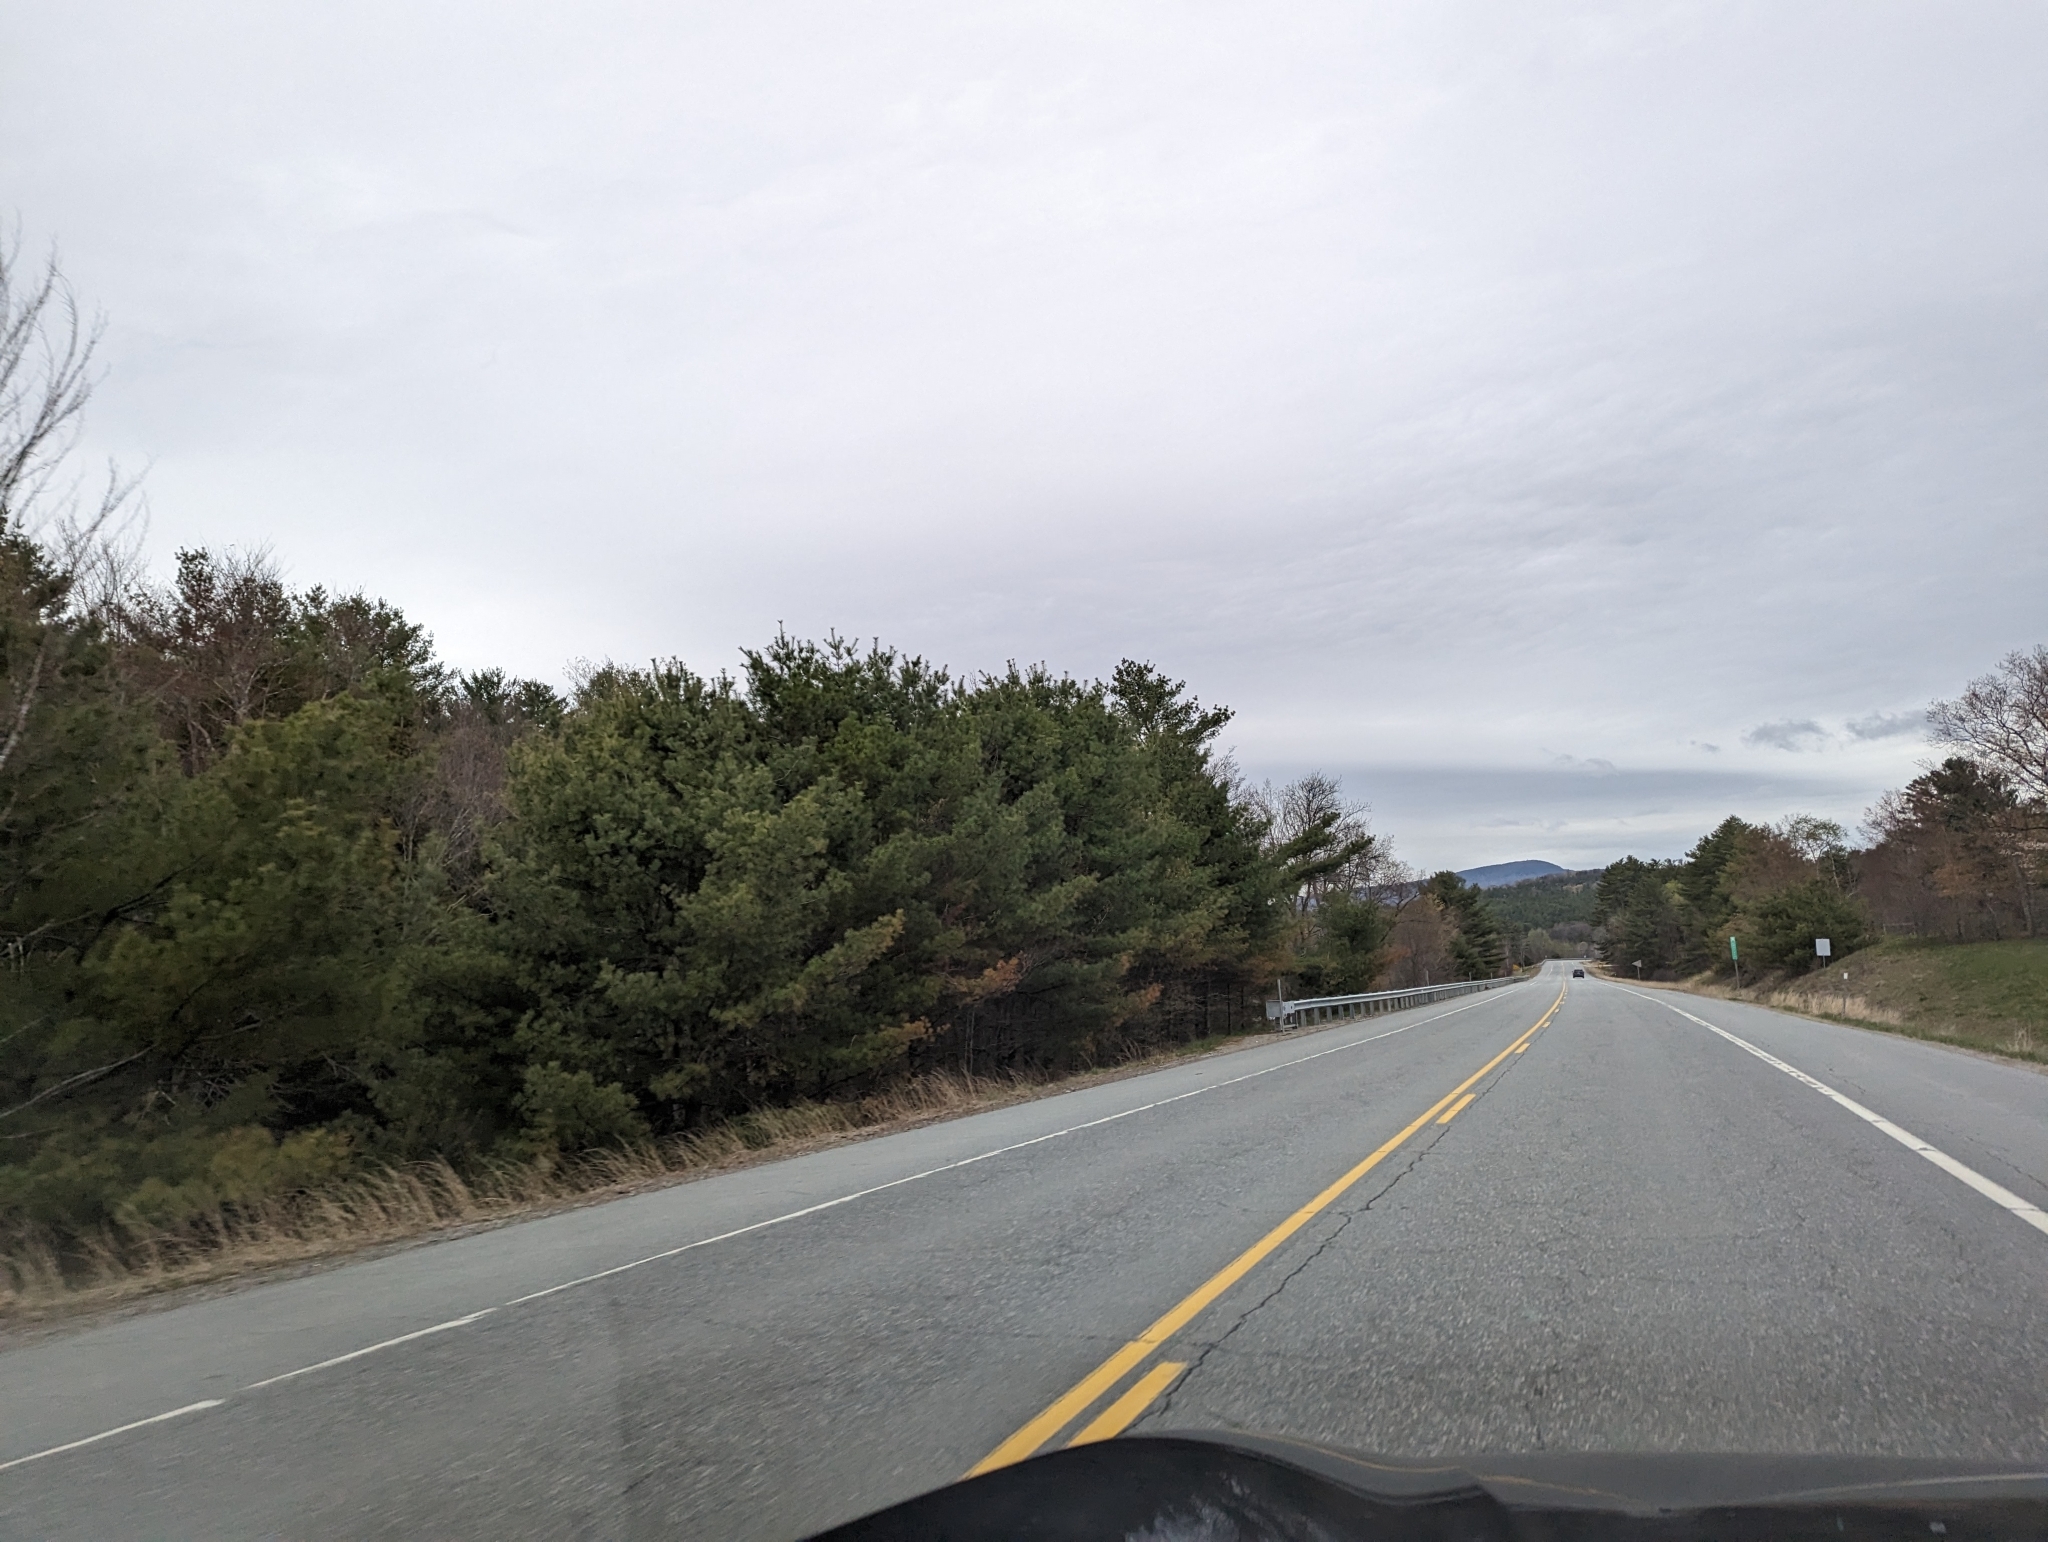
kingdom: Plantae
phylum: Tracheophyta
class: Pinopsida
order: Pinales
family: Pinaceae
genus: Pinus
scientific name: Pinus strobus
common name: Weymouth pine
